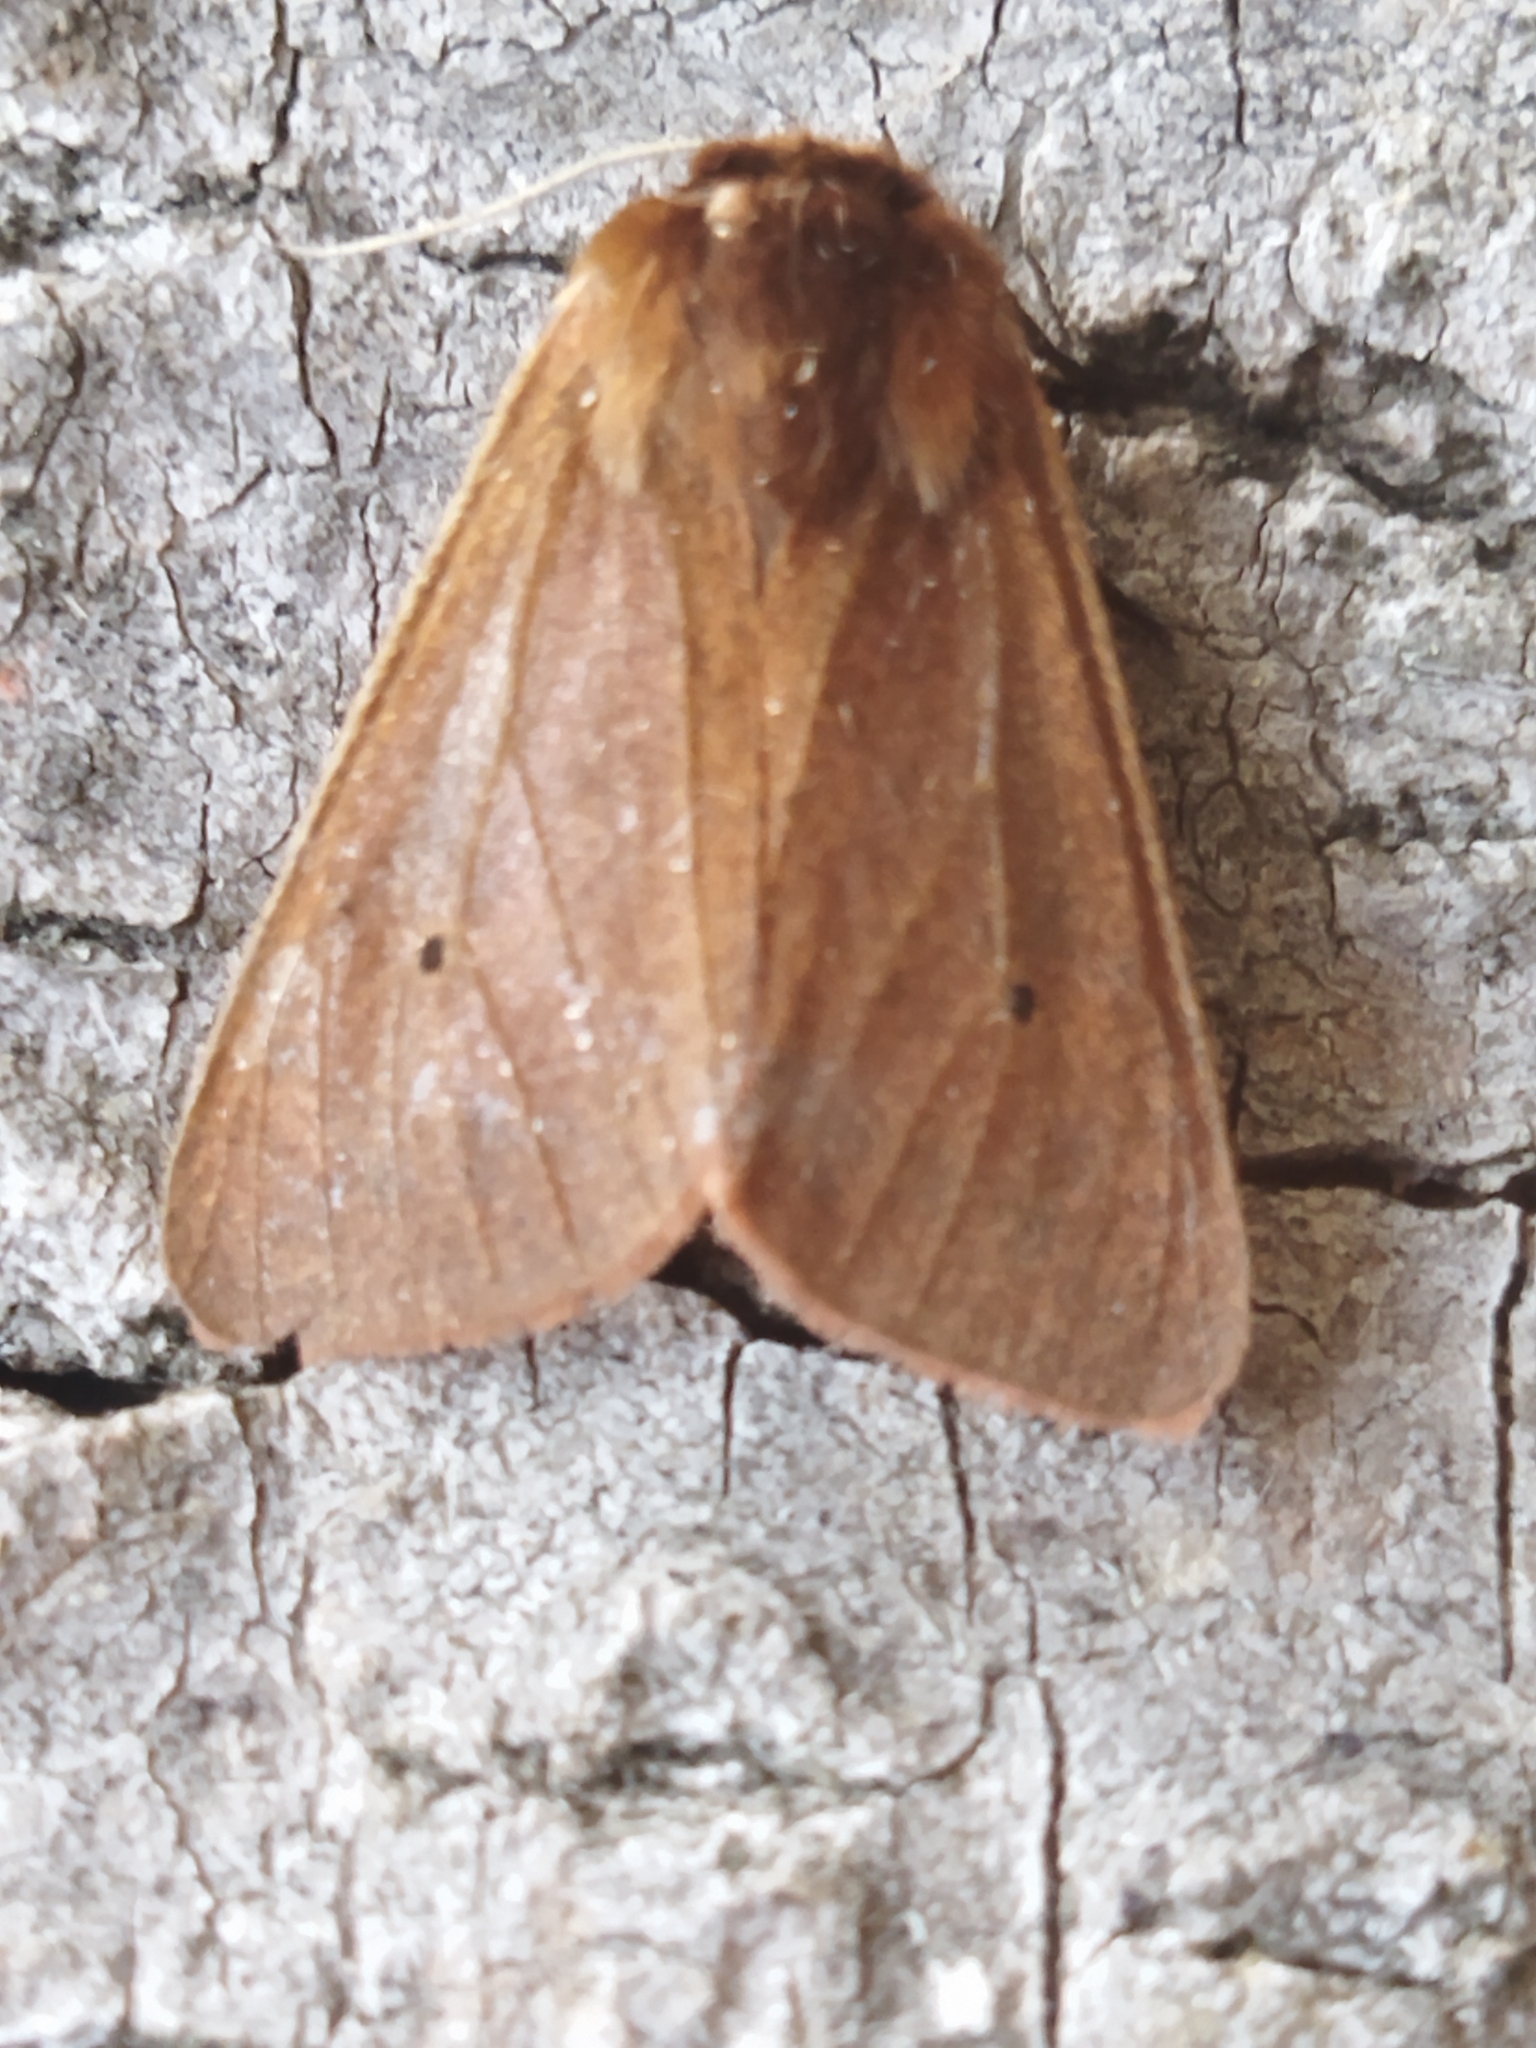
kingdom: Animalia
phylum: Arthropoda
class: Insecta
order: Lepidoptera
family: Erebidae
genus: Phragmatobia
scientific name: Phragmatobia fuliginosa
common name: Ruby tiger
